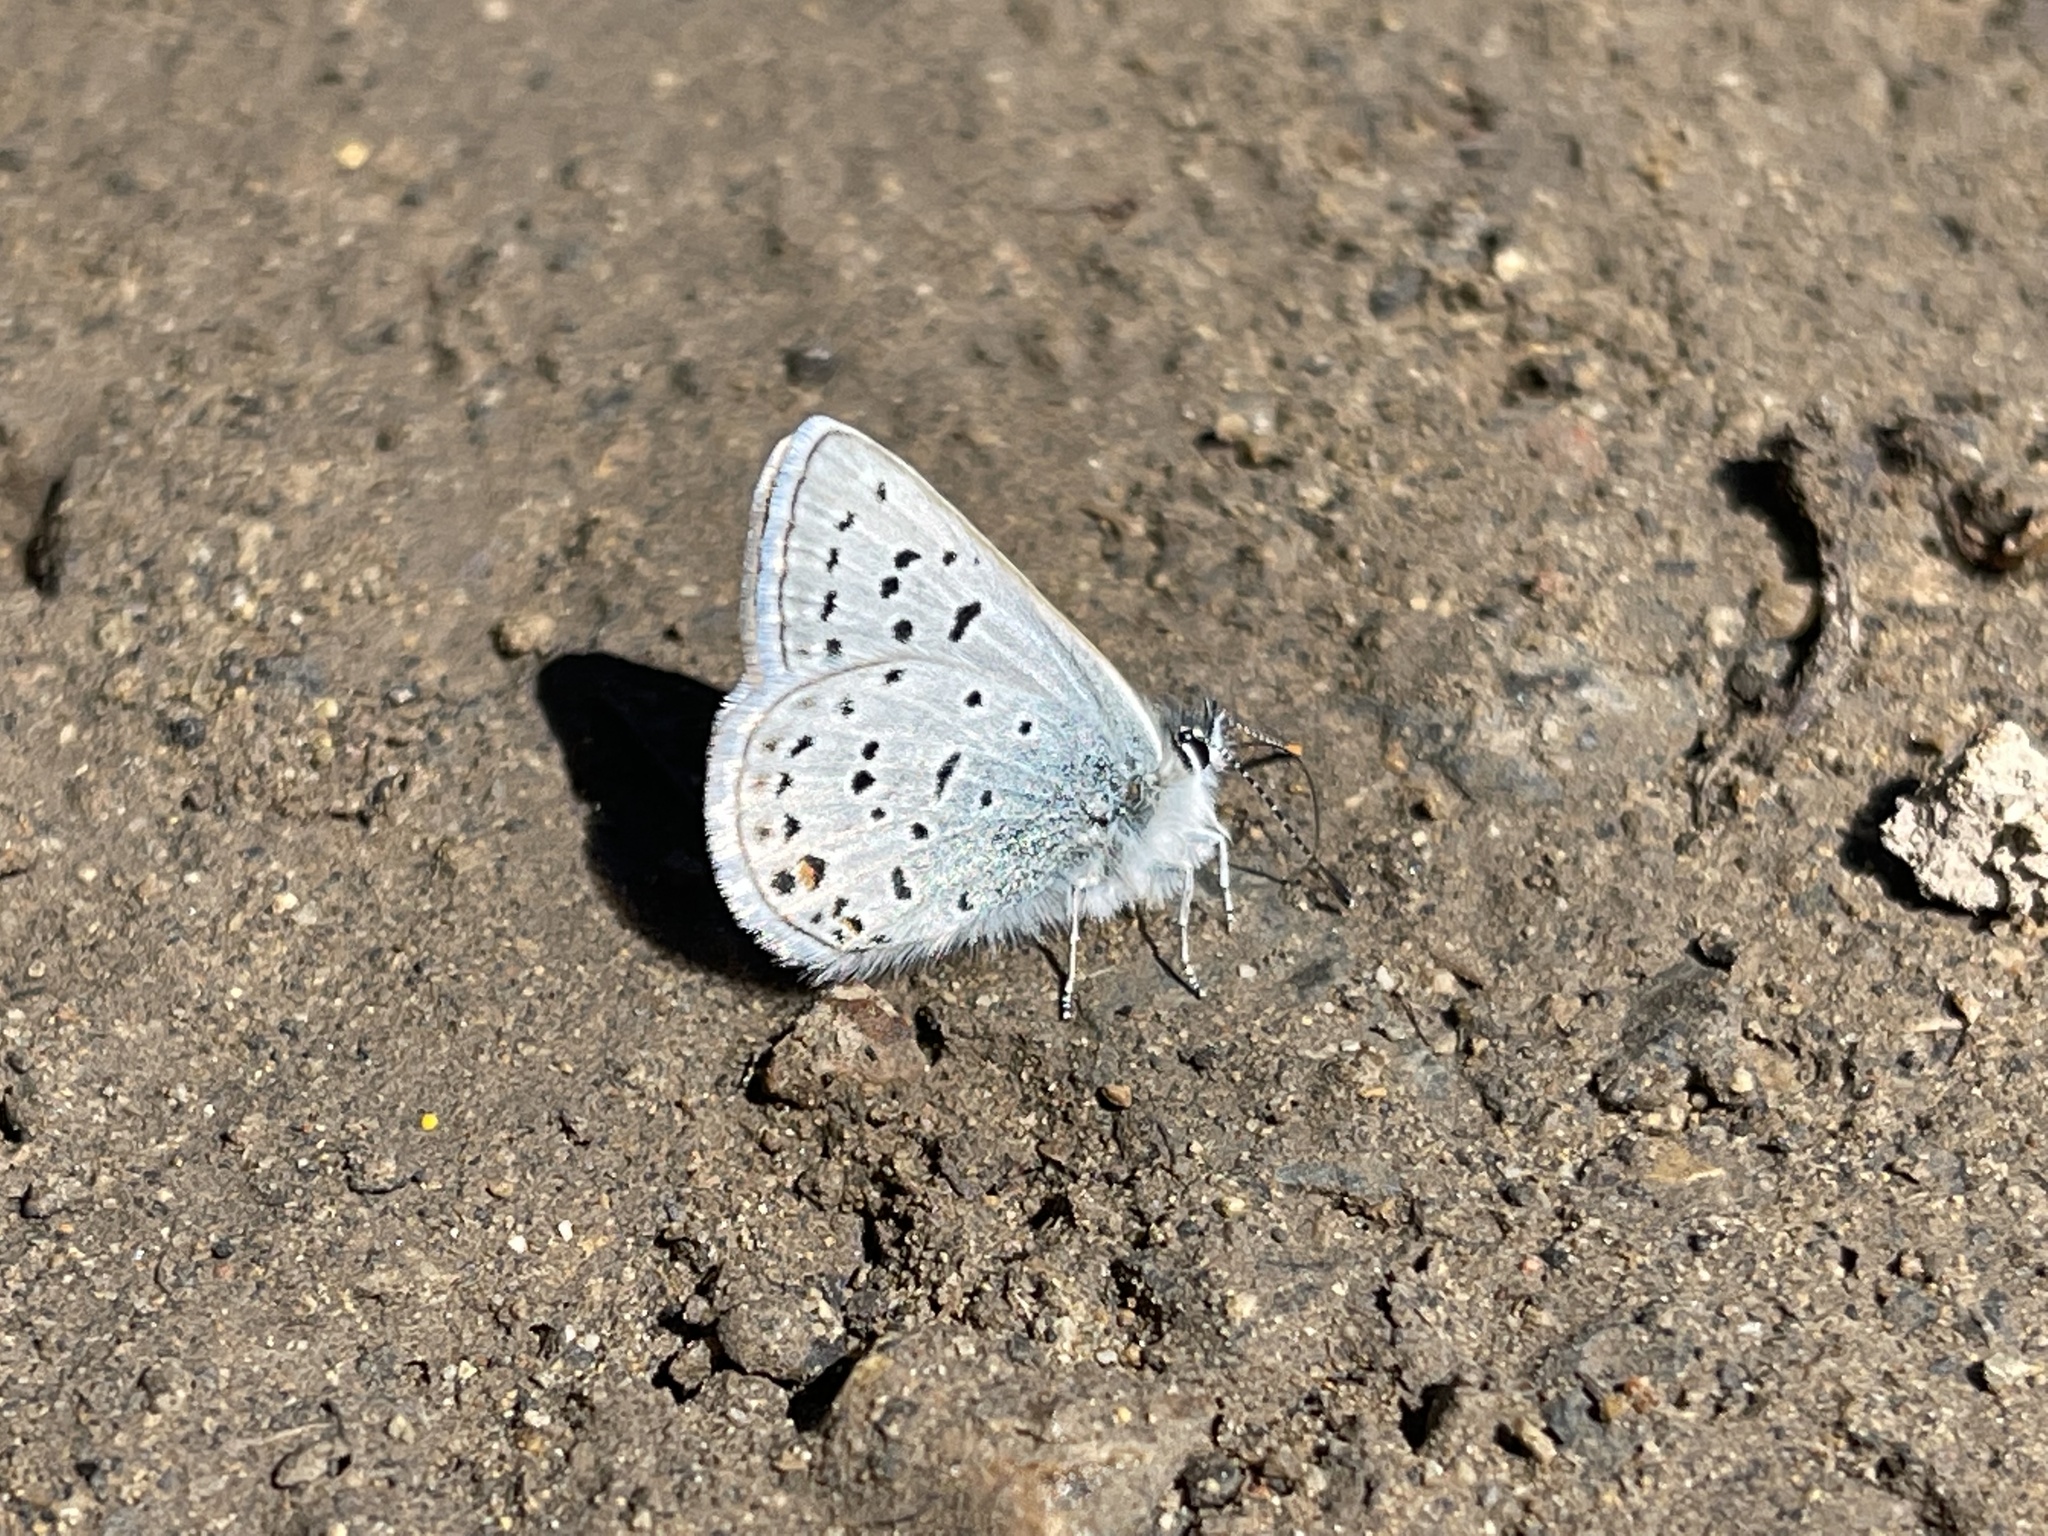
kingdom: Animalia
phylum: Arthropoda
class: Insecta
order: Lepidoptera
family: Lycaenidae
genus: Icaricia
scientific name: Icaricia saepiolus
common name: Greenish blue
